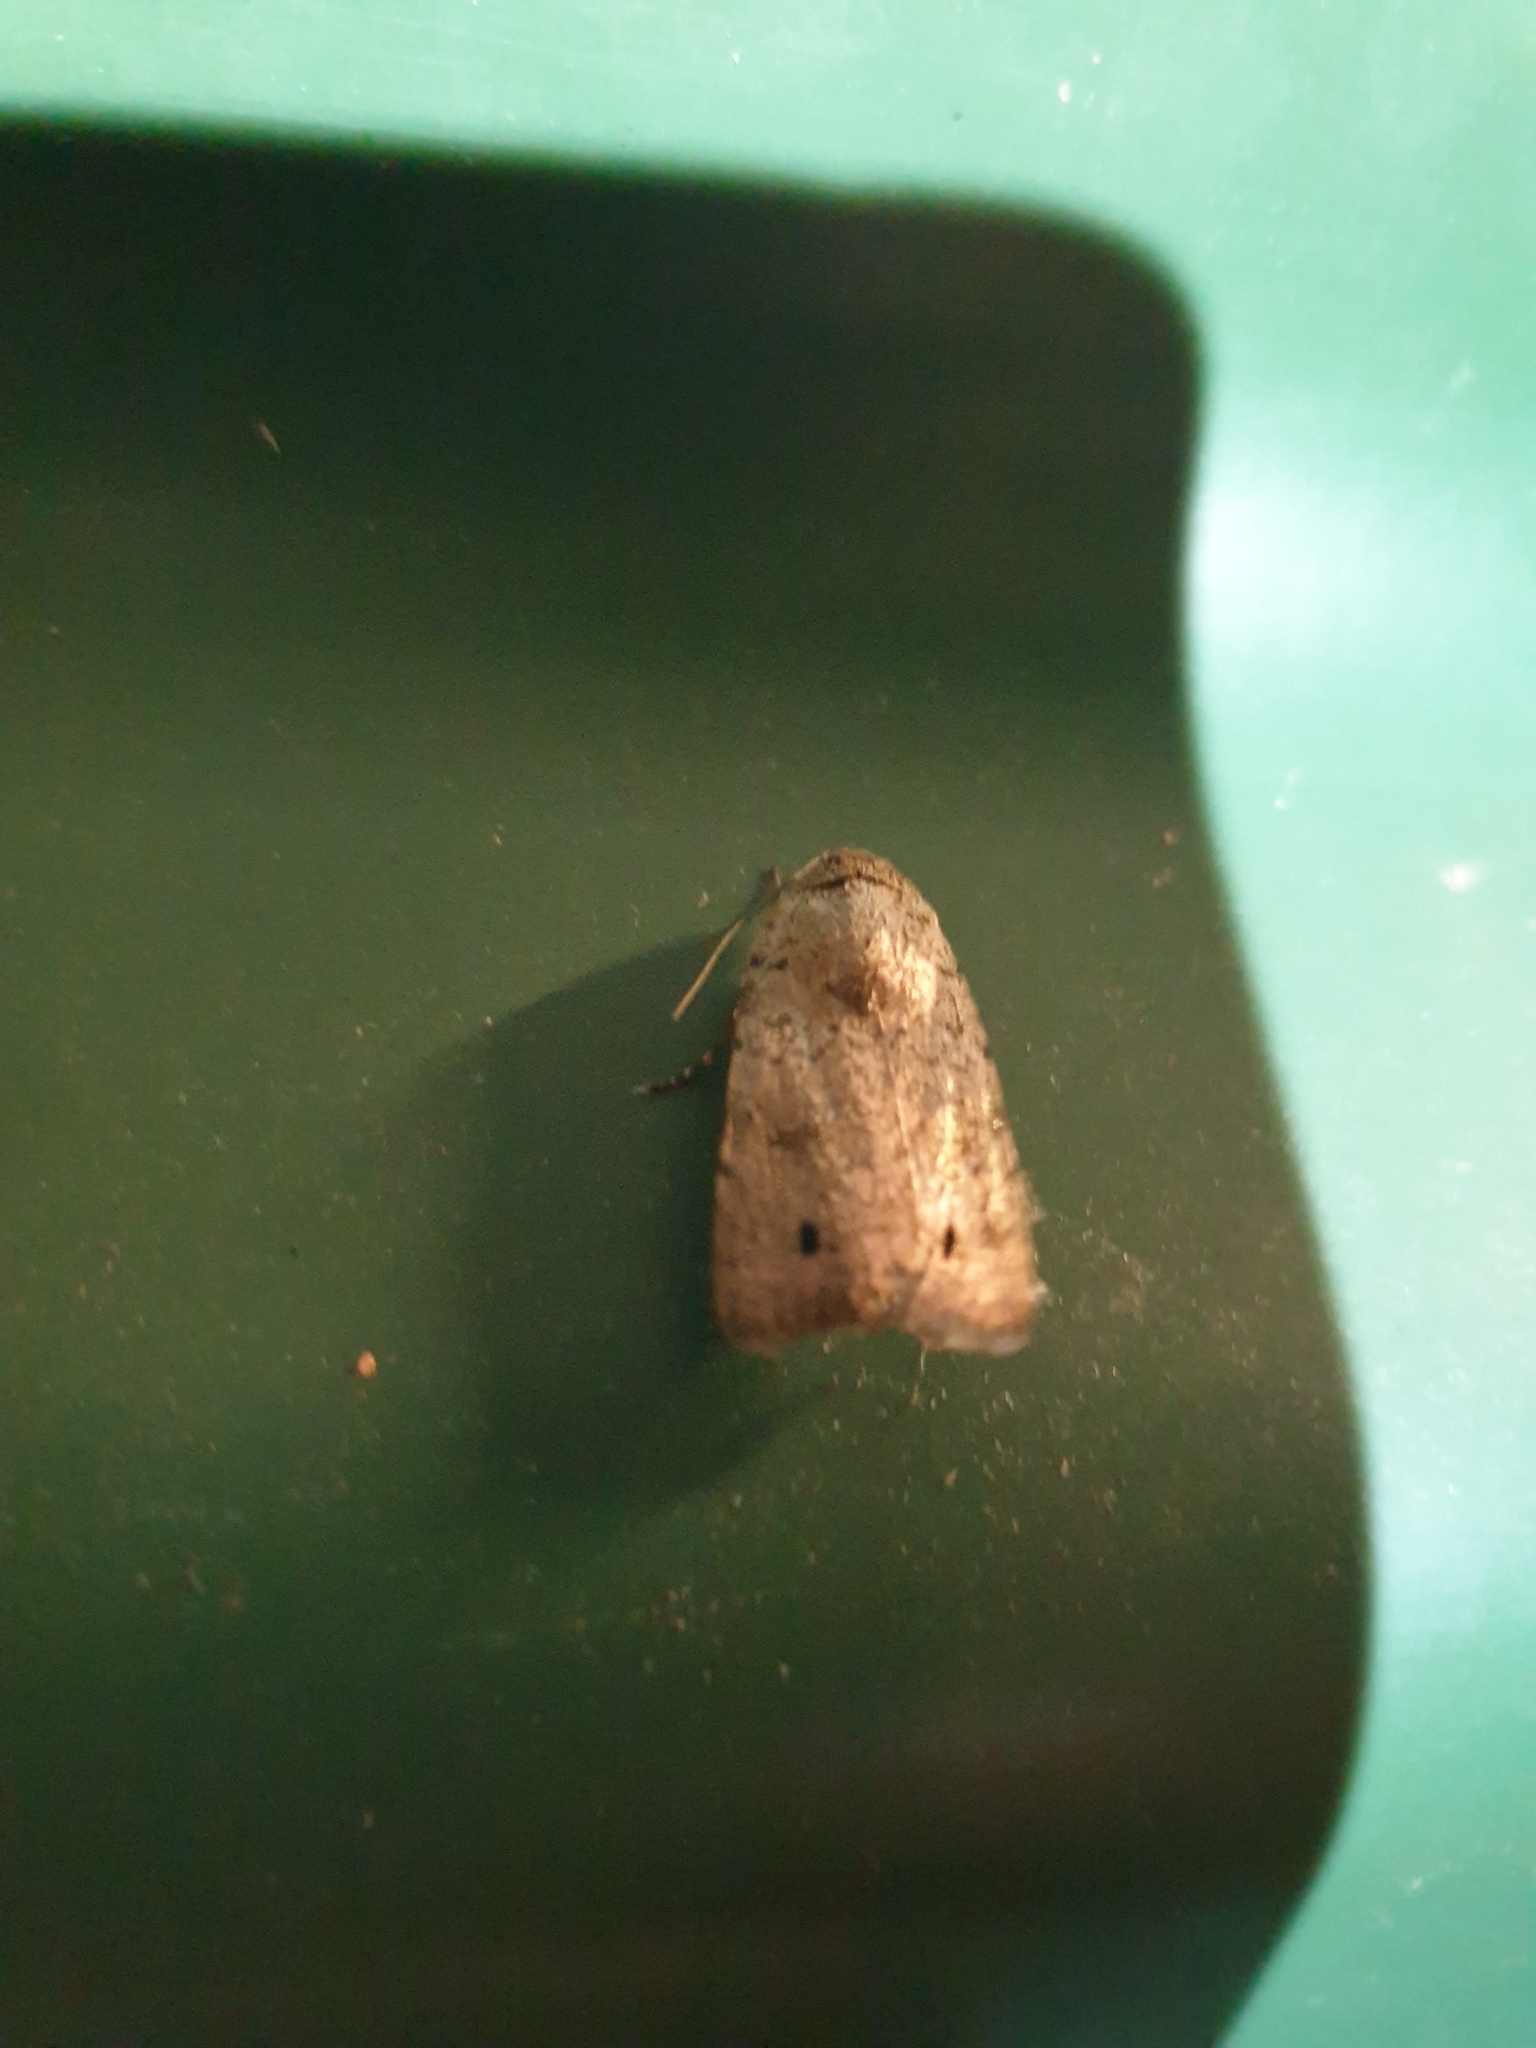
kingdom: Animalia
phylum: Arthropoda
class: Insecta
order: Lepidoptera
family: Noctuidae
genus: Athetis
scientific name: Athetis maculatra
